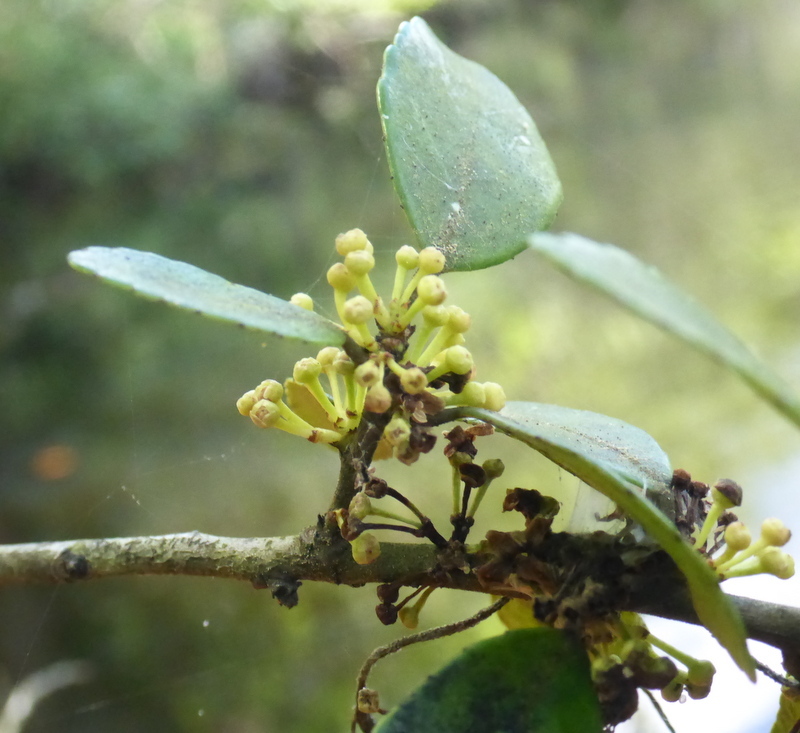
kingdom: Plantae
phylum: Tracheophyta
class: Magnoliopsida
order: Aquifoliales
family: Aquifoliaceae
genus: Ilex
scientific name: Ilex vomitoria
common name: Yaupon holly
